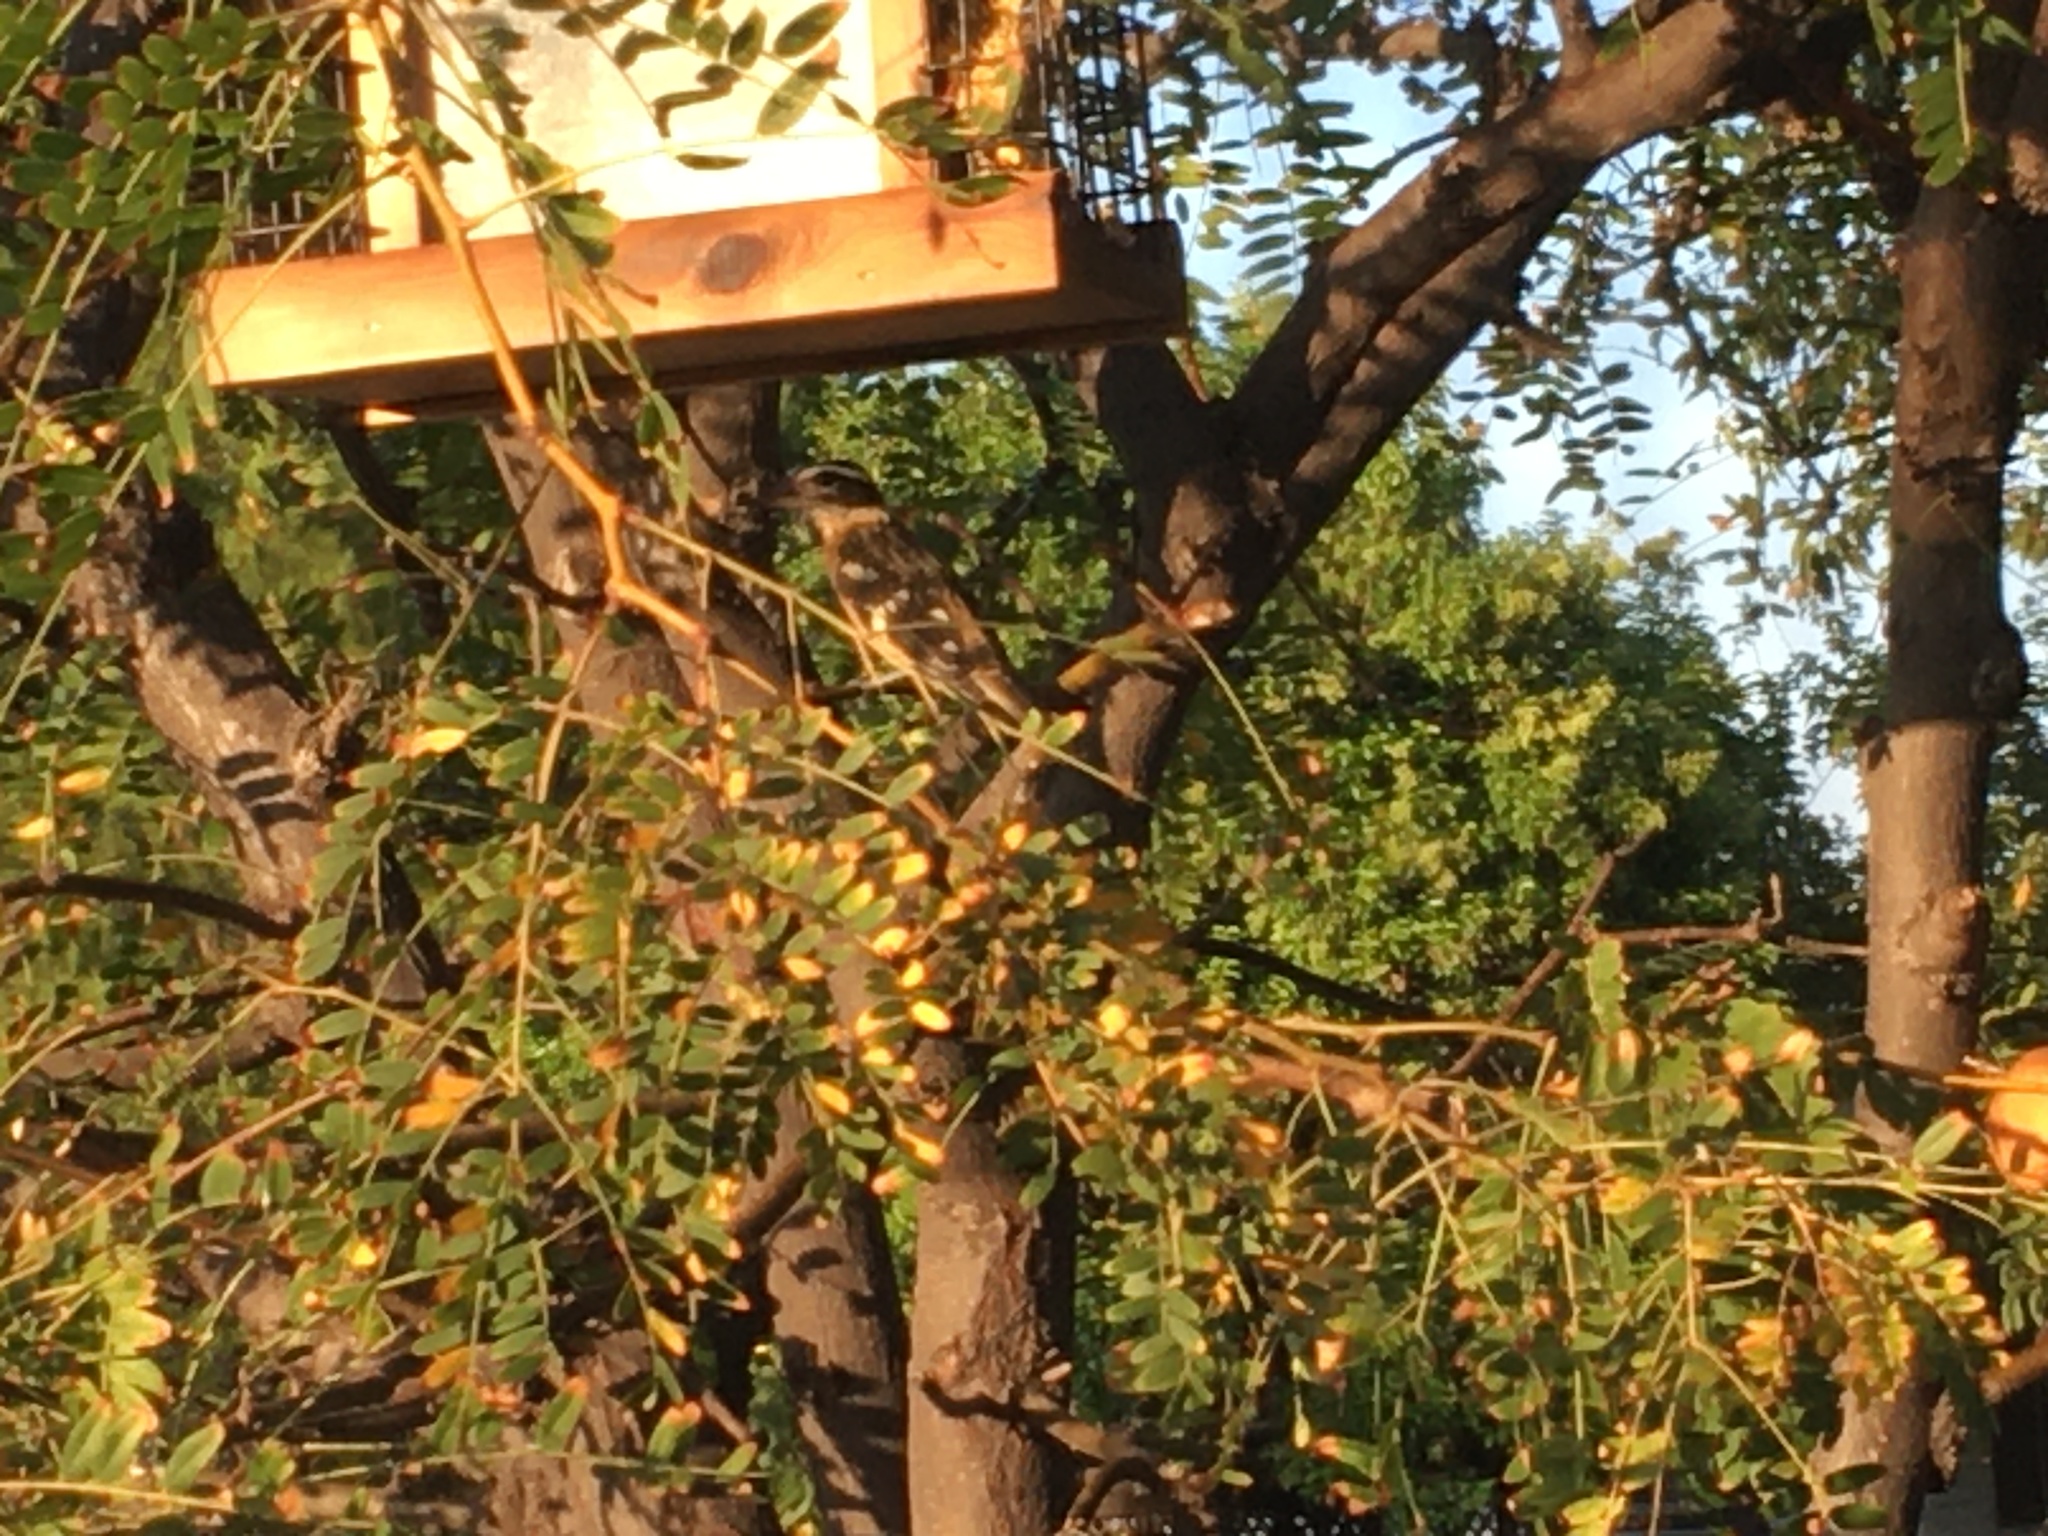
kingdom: Animalia
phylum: Chordata
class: Aves
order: Passeriformes
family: Cardinalidae
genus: Pheucticus
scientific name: Pheucticus melanocephalus
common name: Black-headed grosbeak
